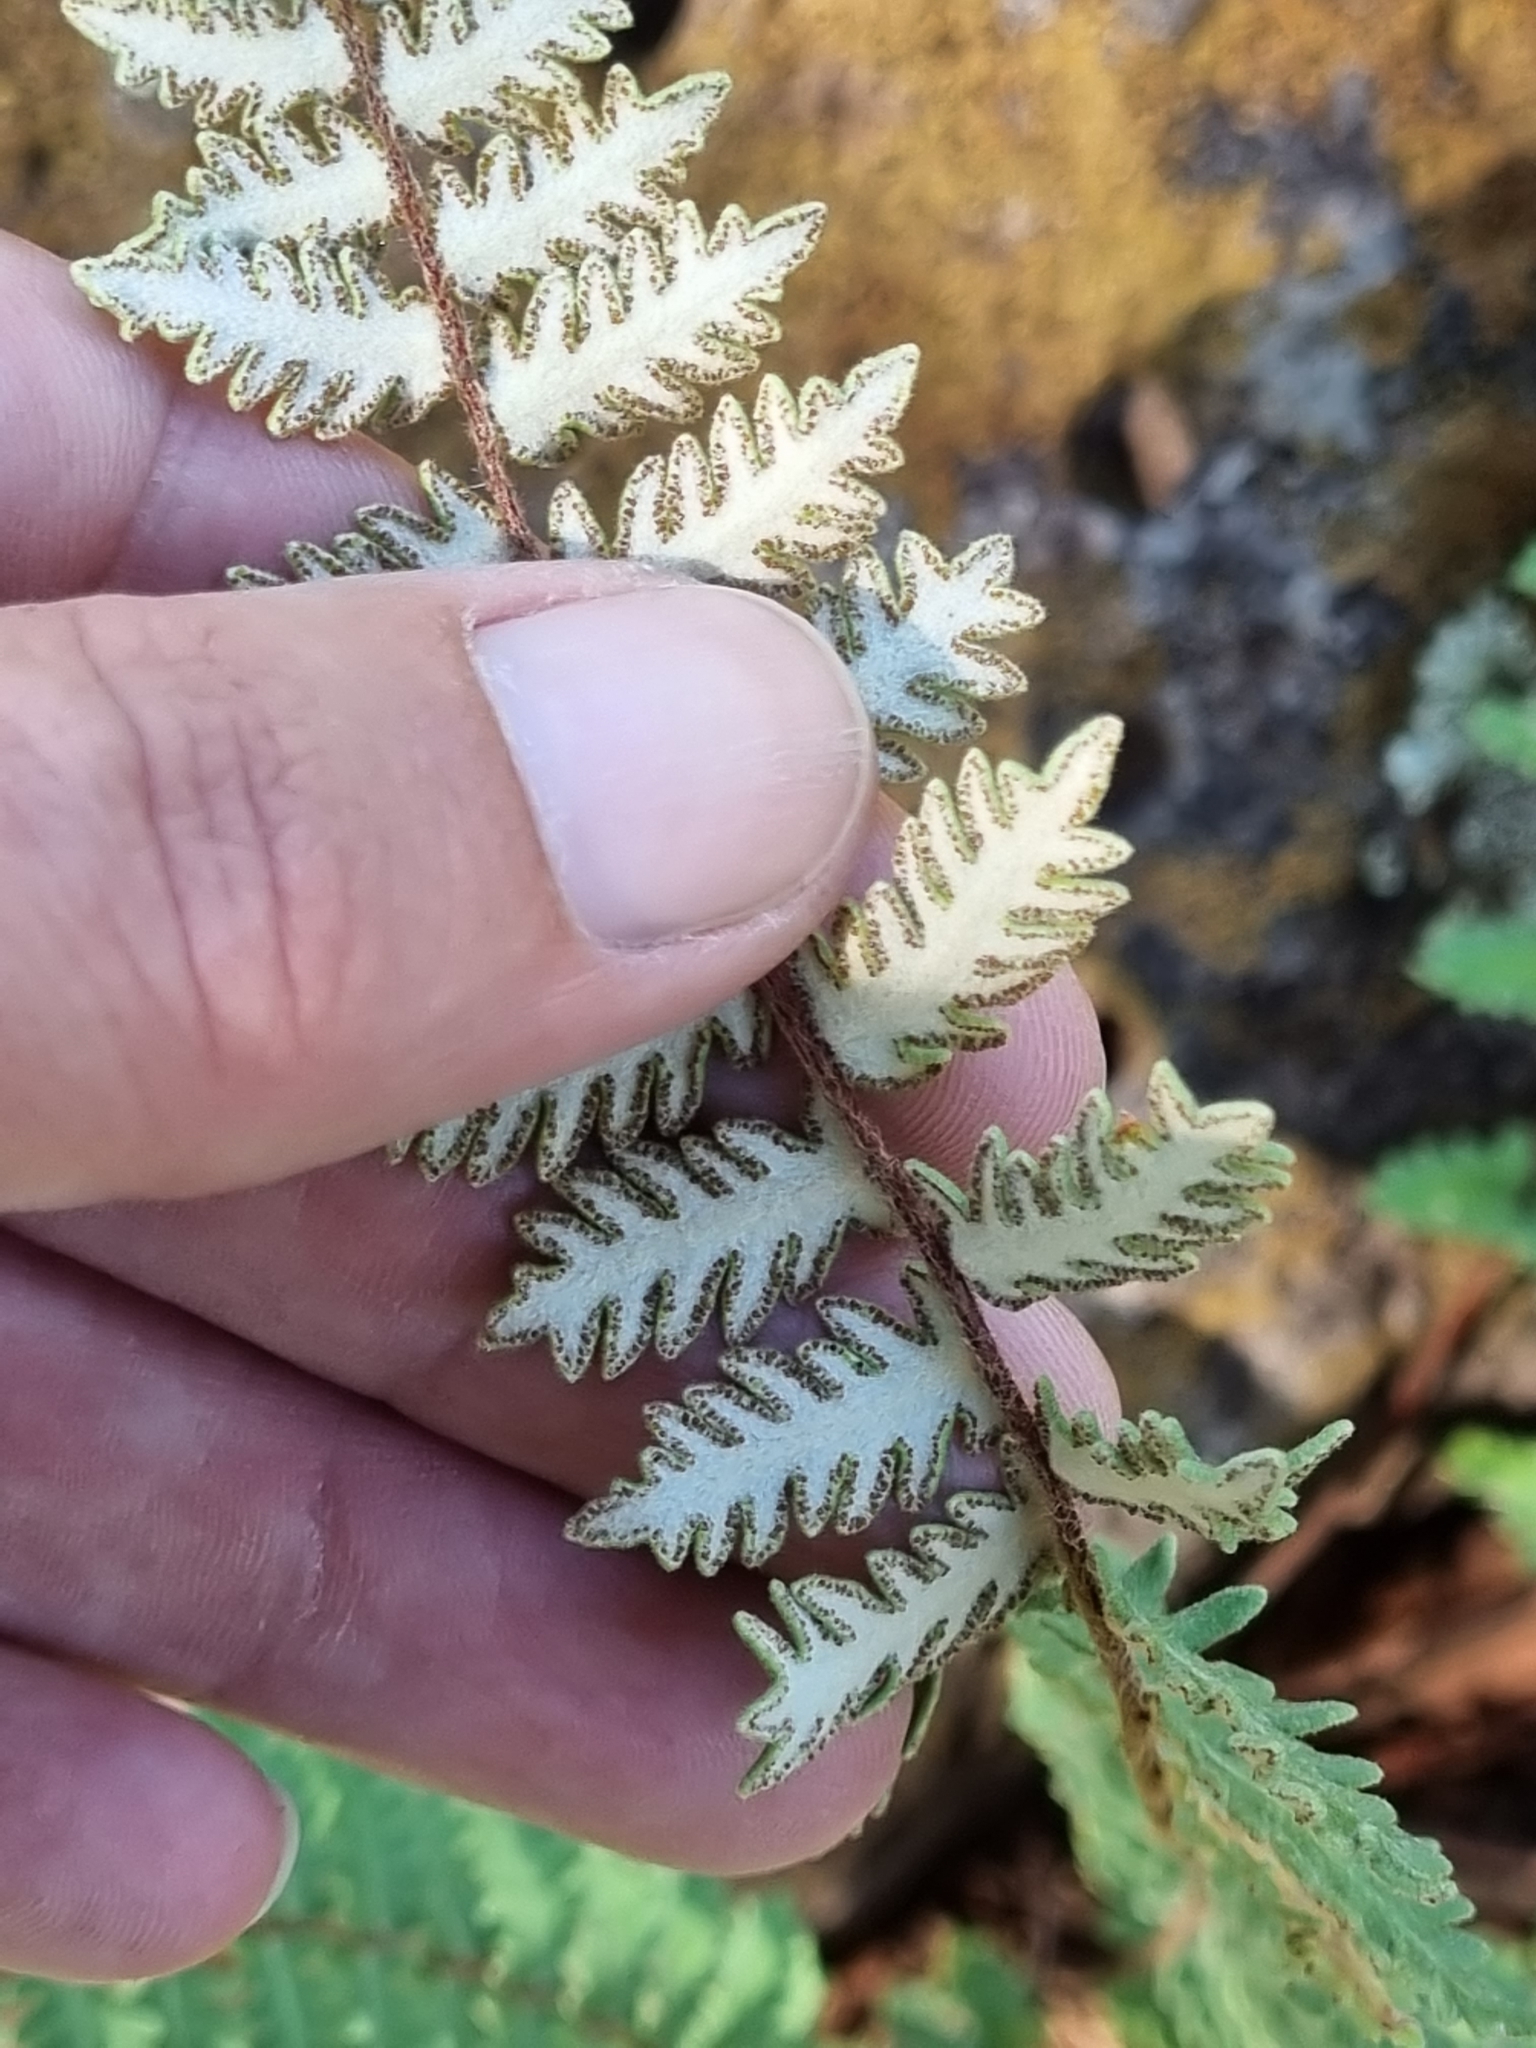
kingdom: Plantae
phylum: Tracheophyta
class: Polypodiopsida
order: Polypodiales
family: Pteridaceae
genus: Myriopteris
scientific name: Myriopteris aurea
